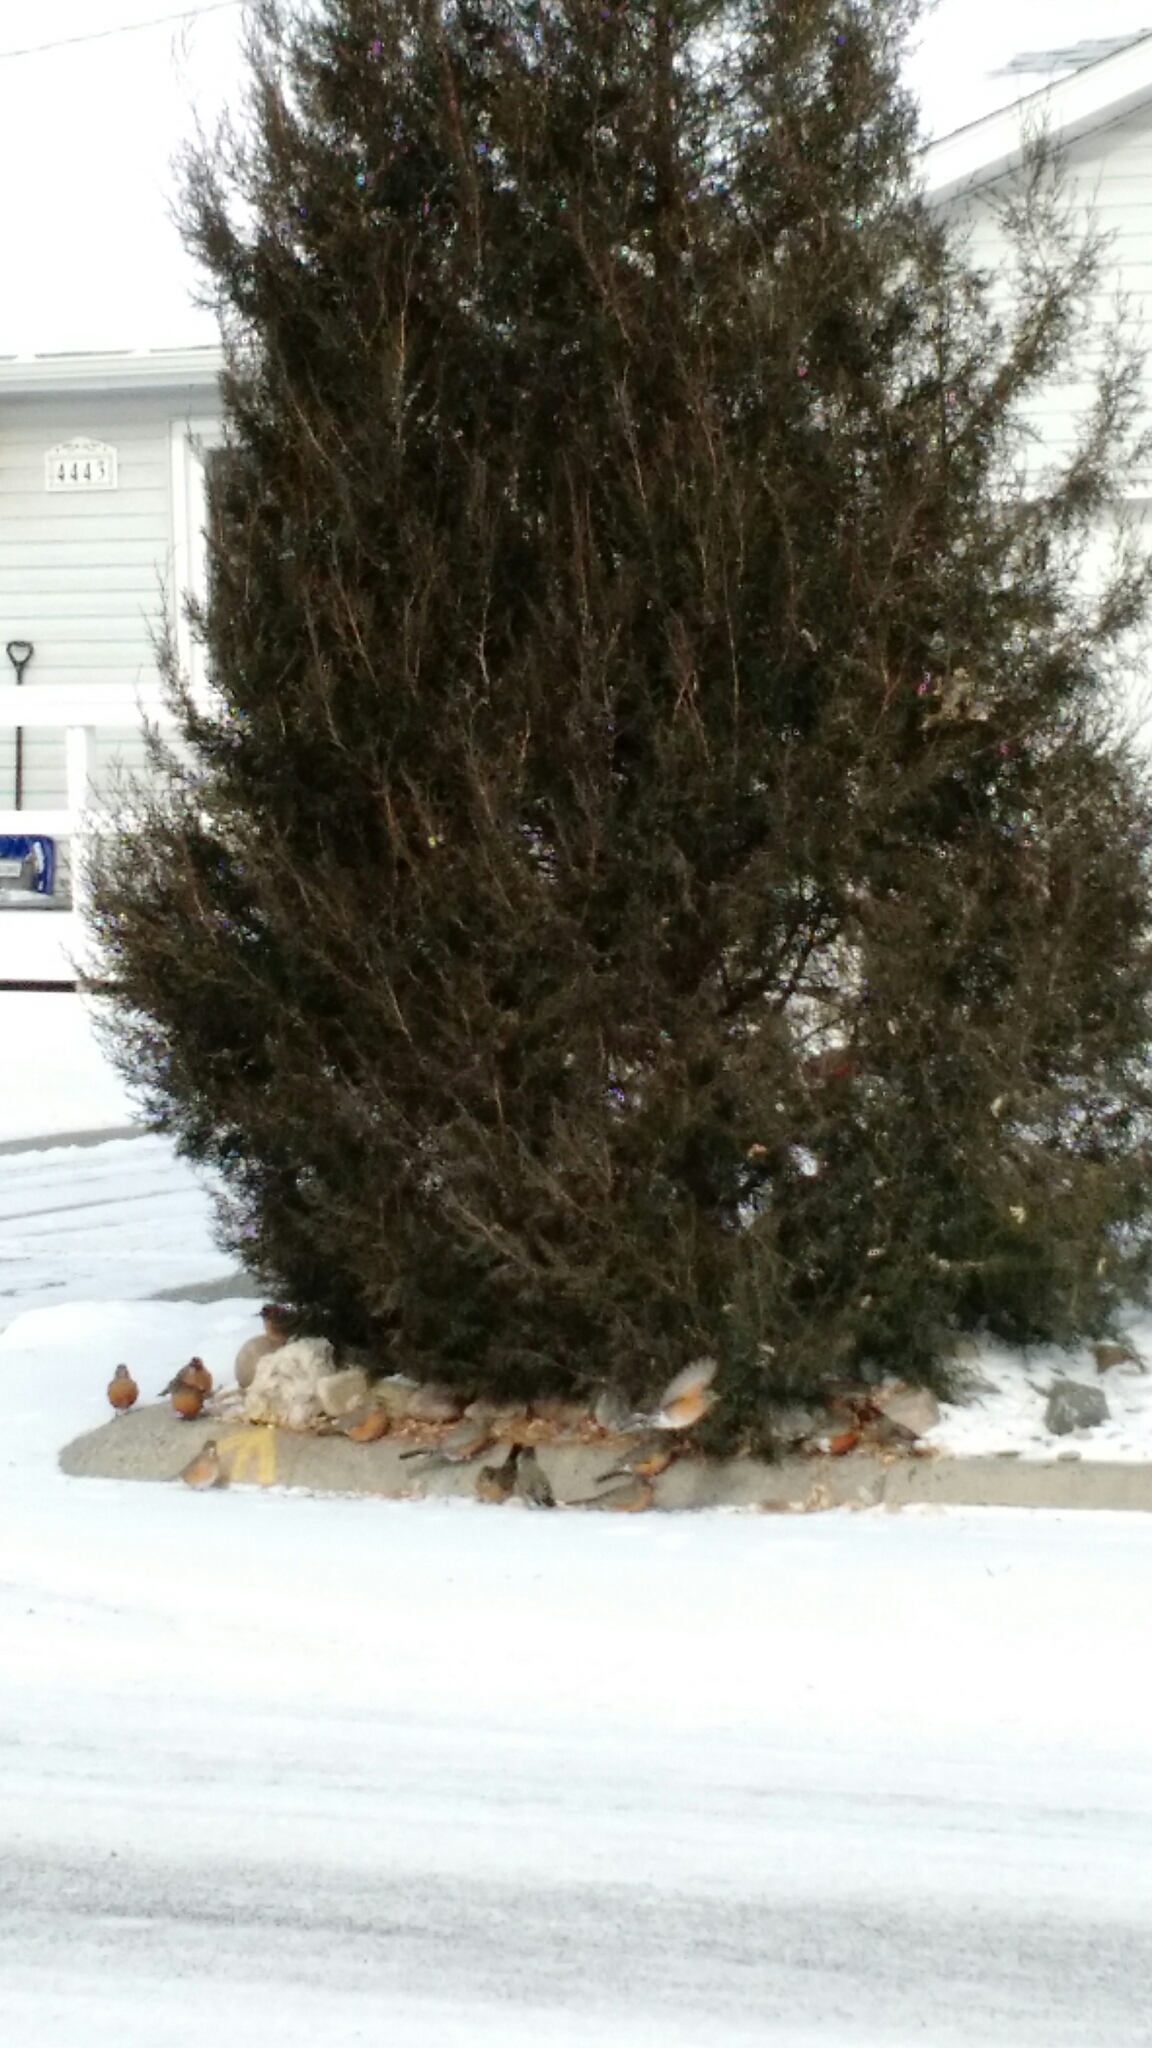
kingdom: Animalia
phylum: Chordata
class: Aves
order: Passeriformes
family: Turdidae
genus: Turdus
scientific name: Turdus migratorius
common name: American robin
